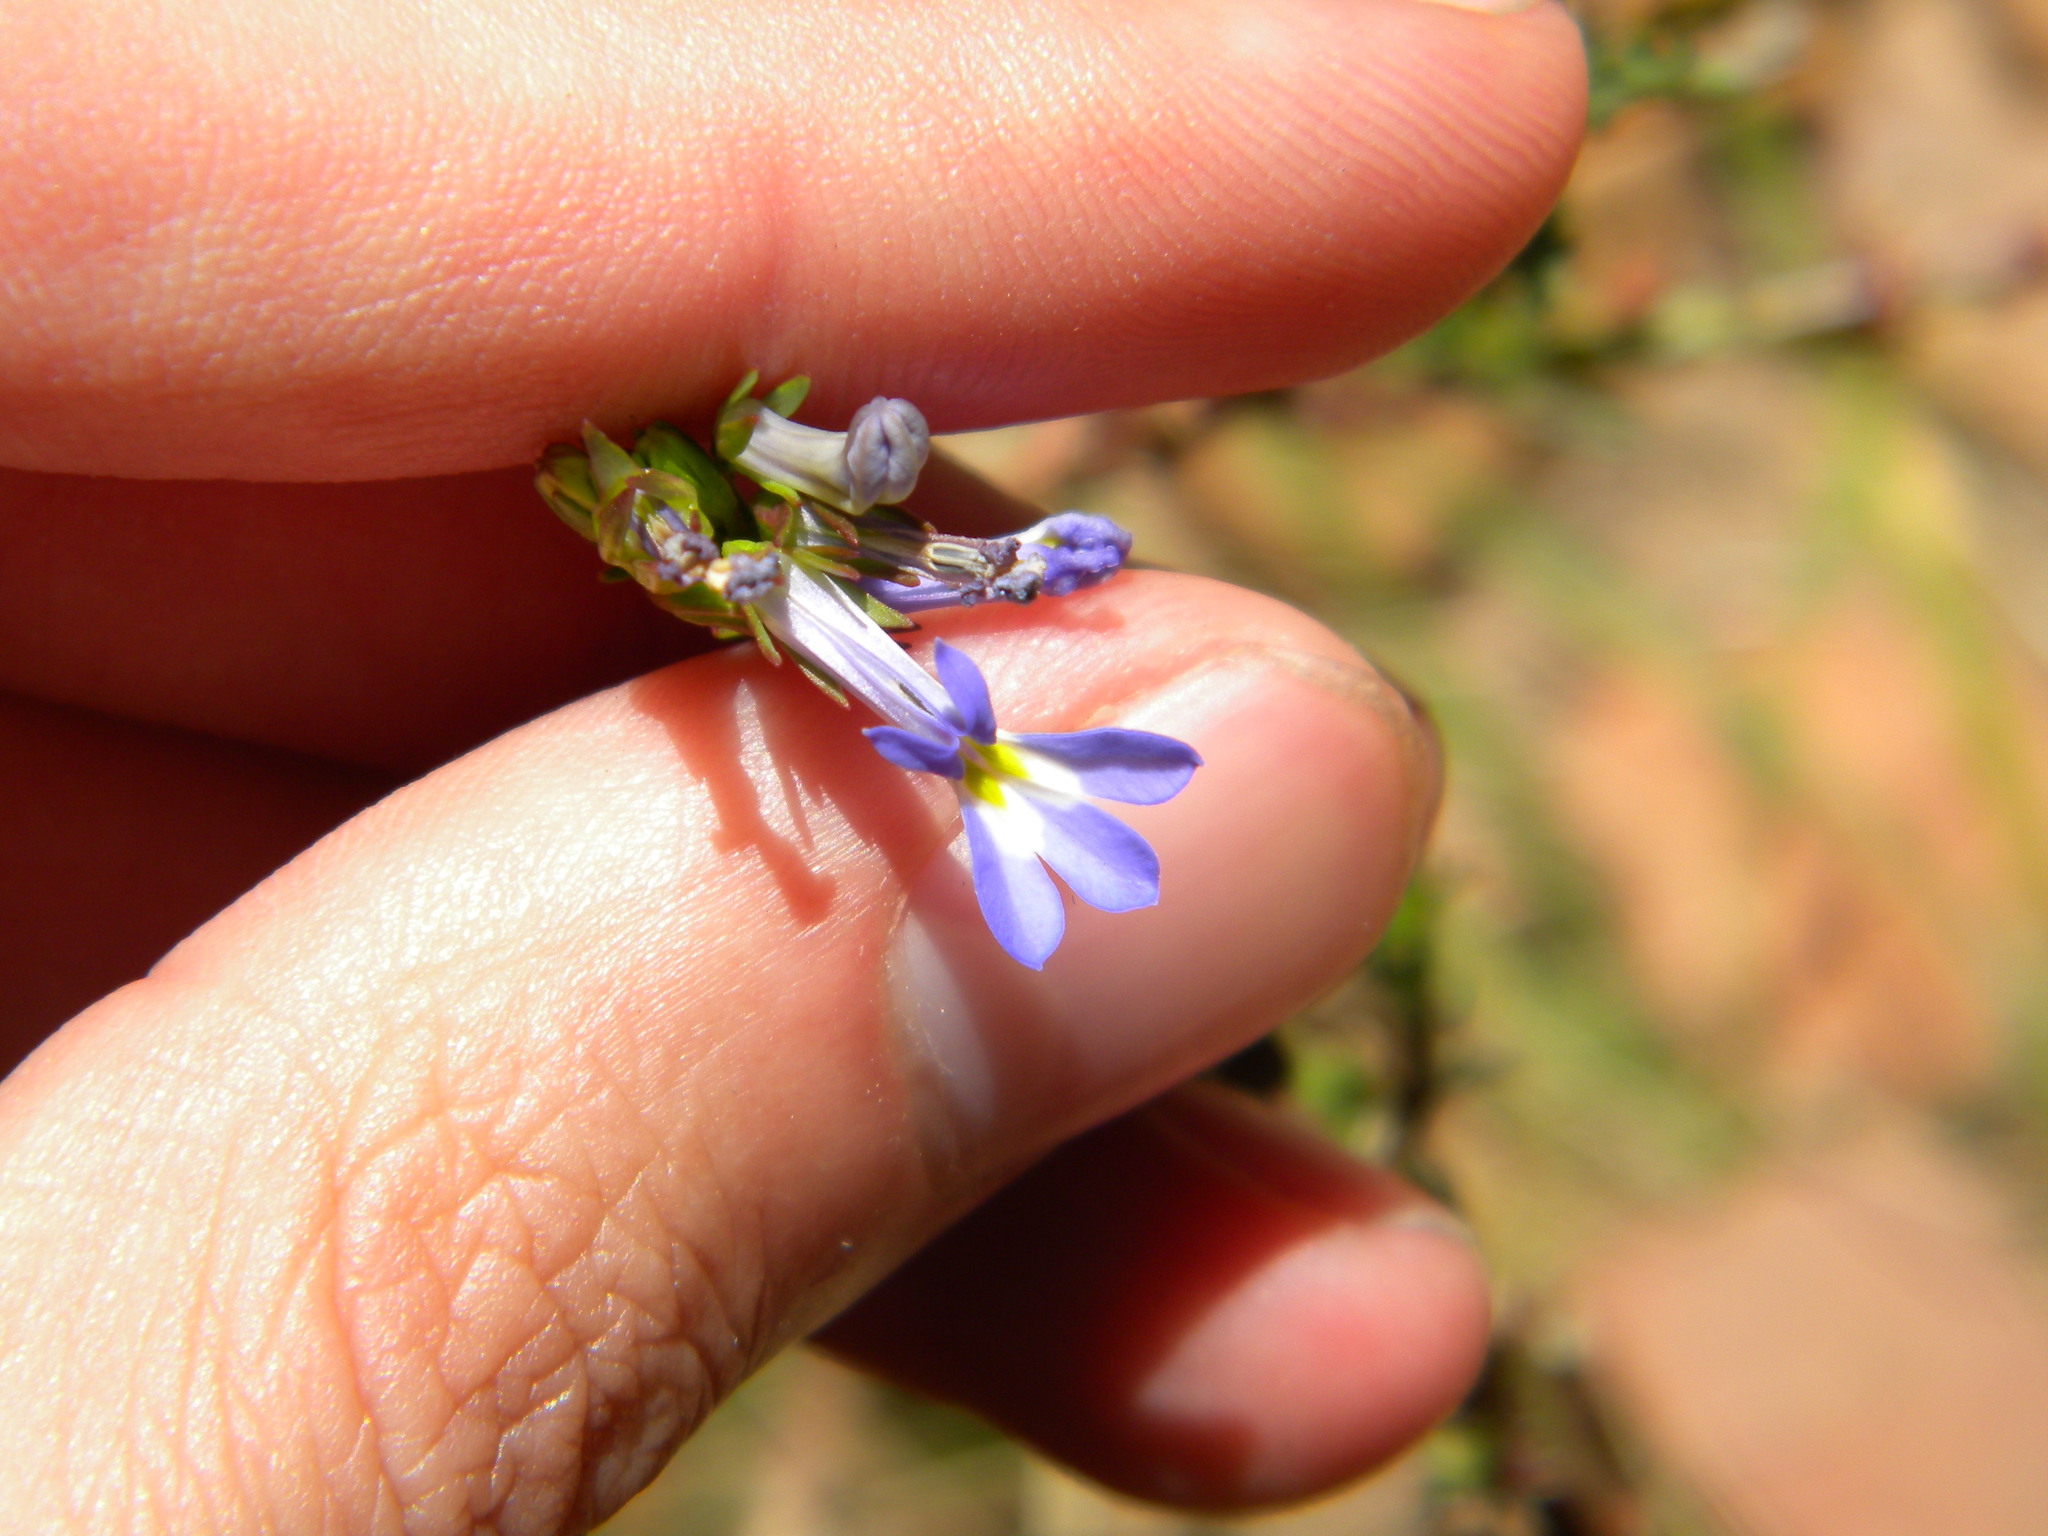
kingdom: Plantae
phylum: Tracheophyta
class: Magnoliopsida
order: Asterales
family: Campanulaceae
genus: Lobelia
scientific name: Lobelia comosa
